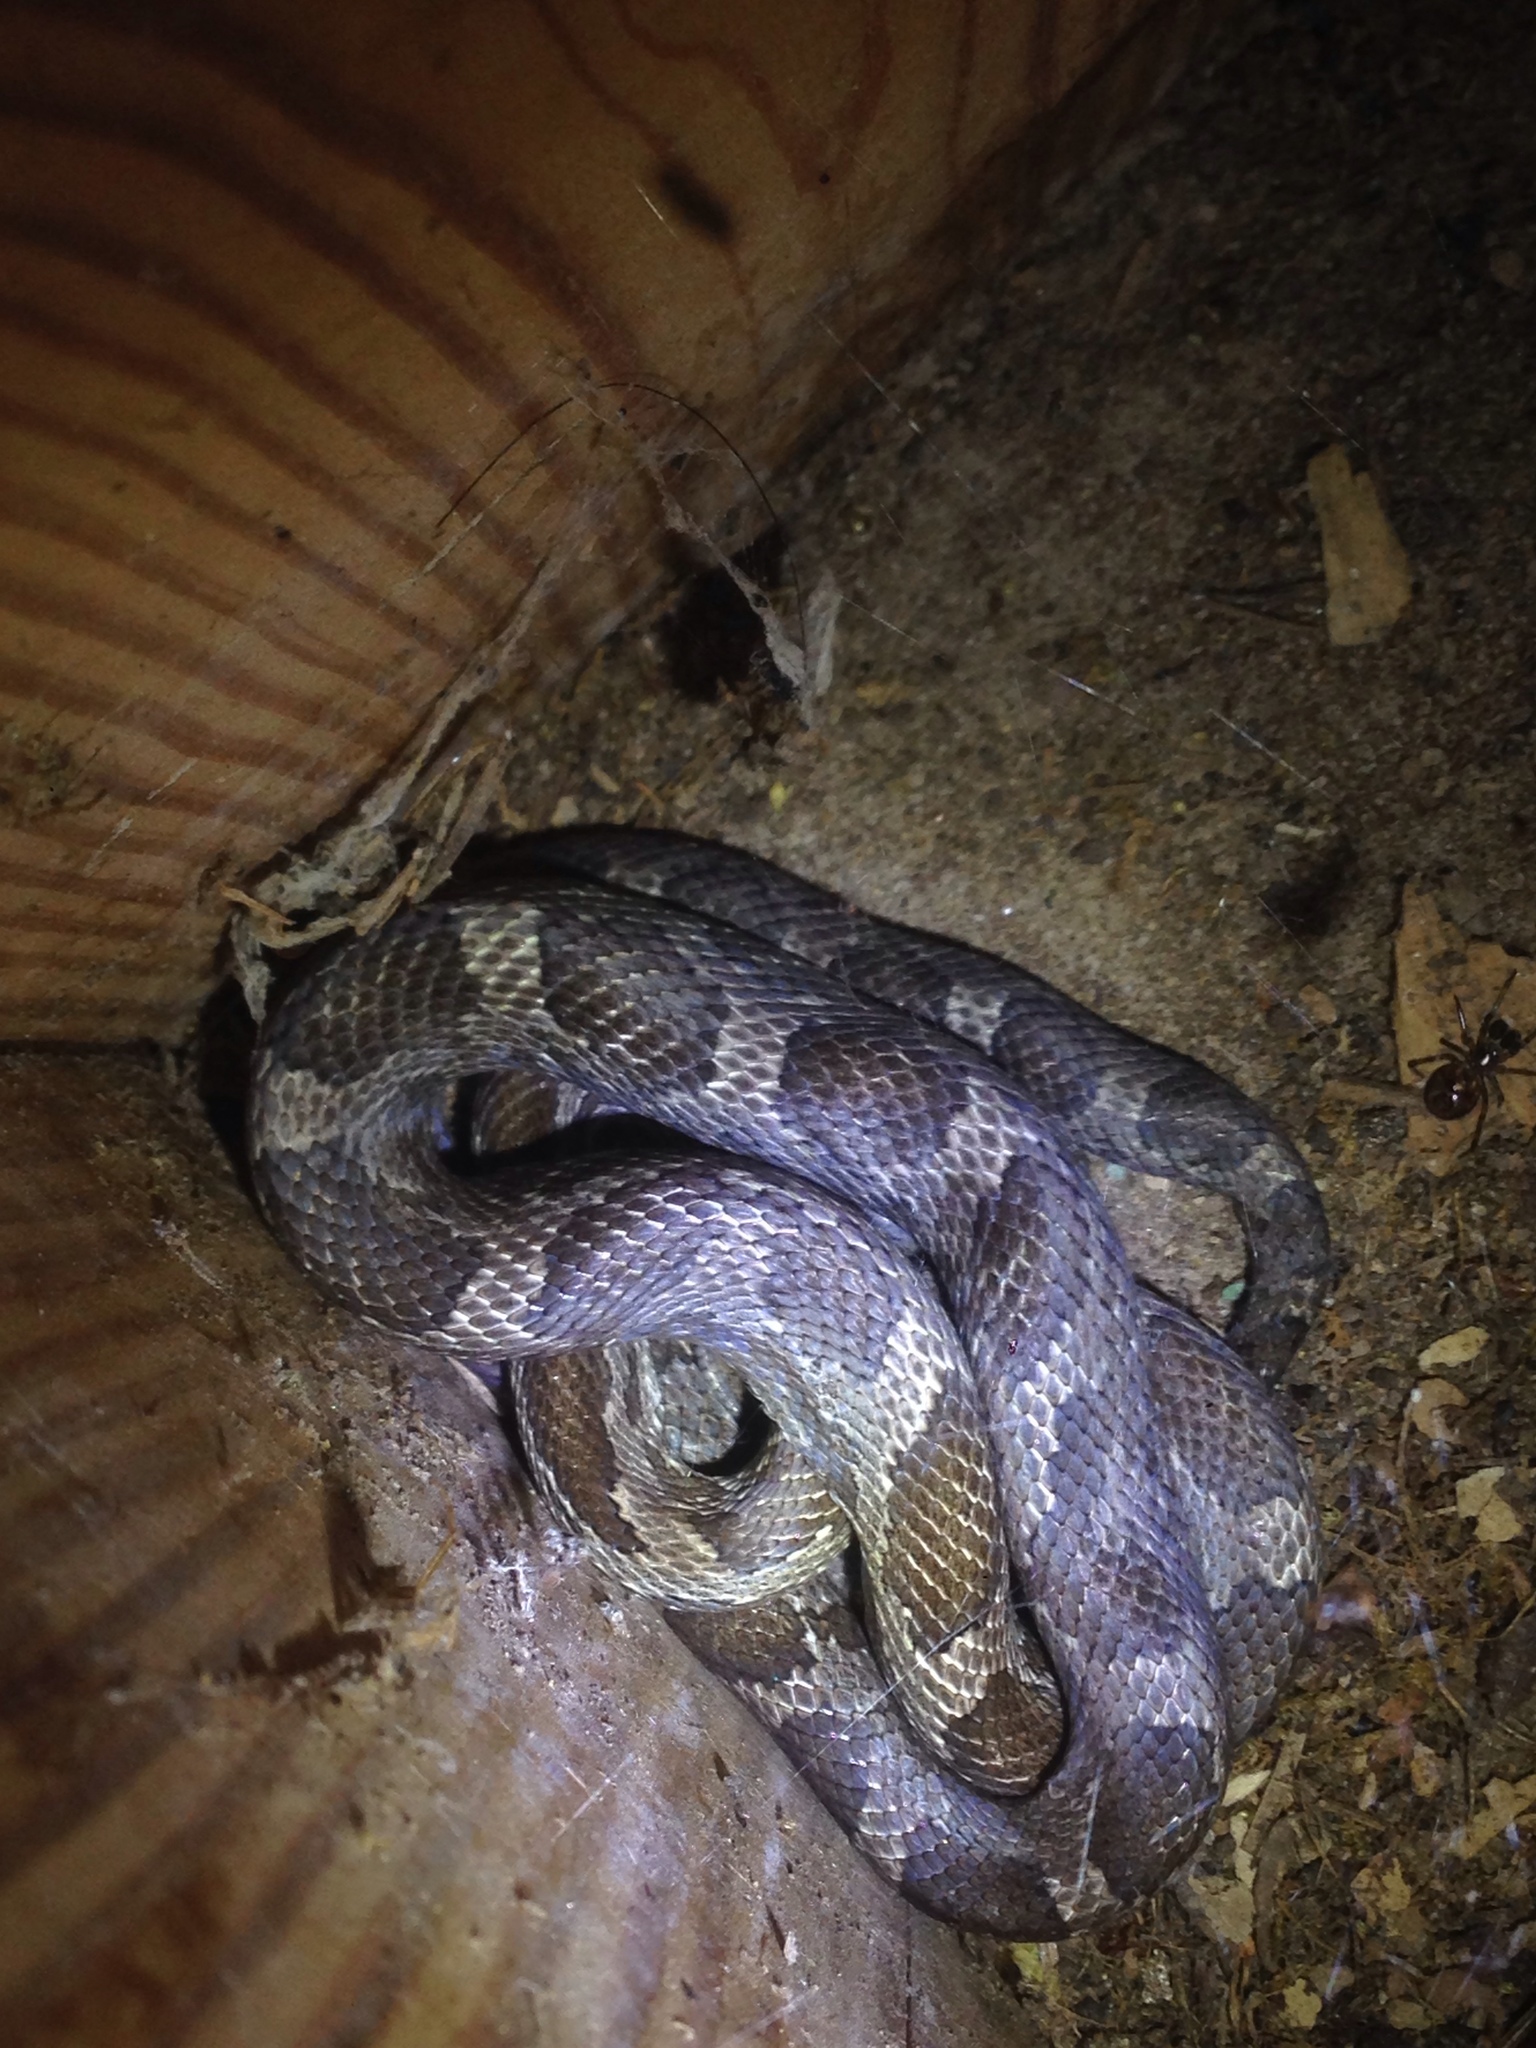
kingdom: Animalia
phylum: Chordata
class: Squamata
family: Colubridae
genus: Pantherophis
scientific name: Pantherophis spiloides
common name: Gray rat snake
